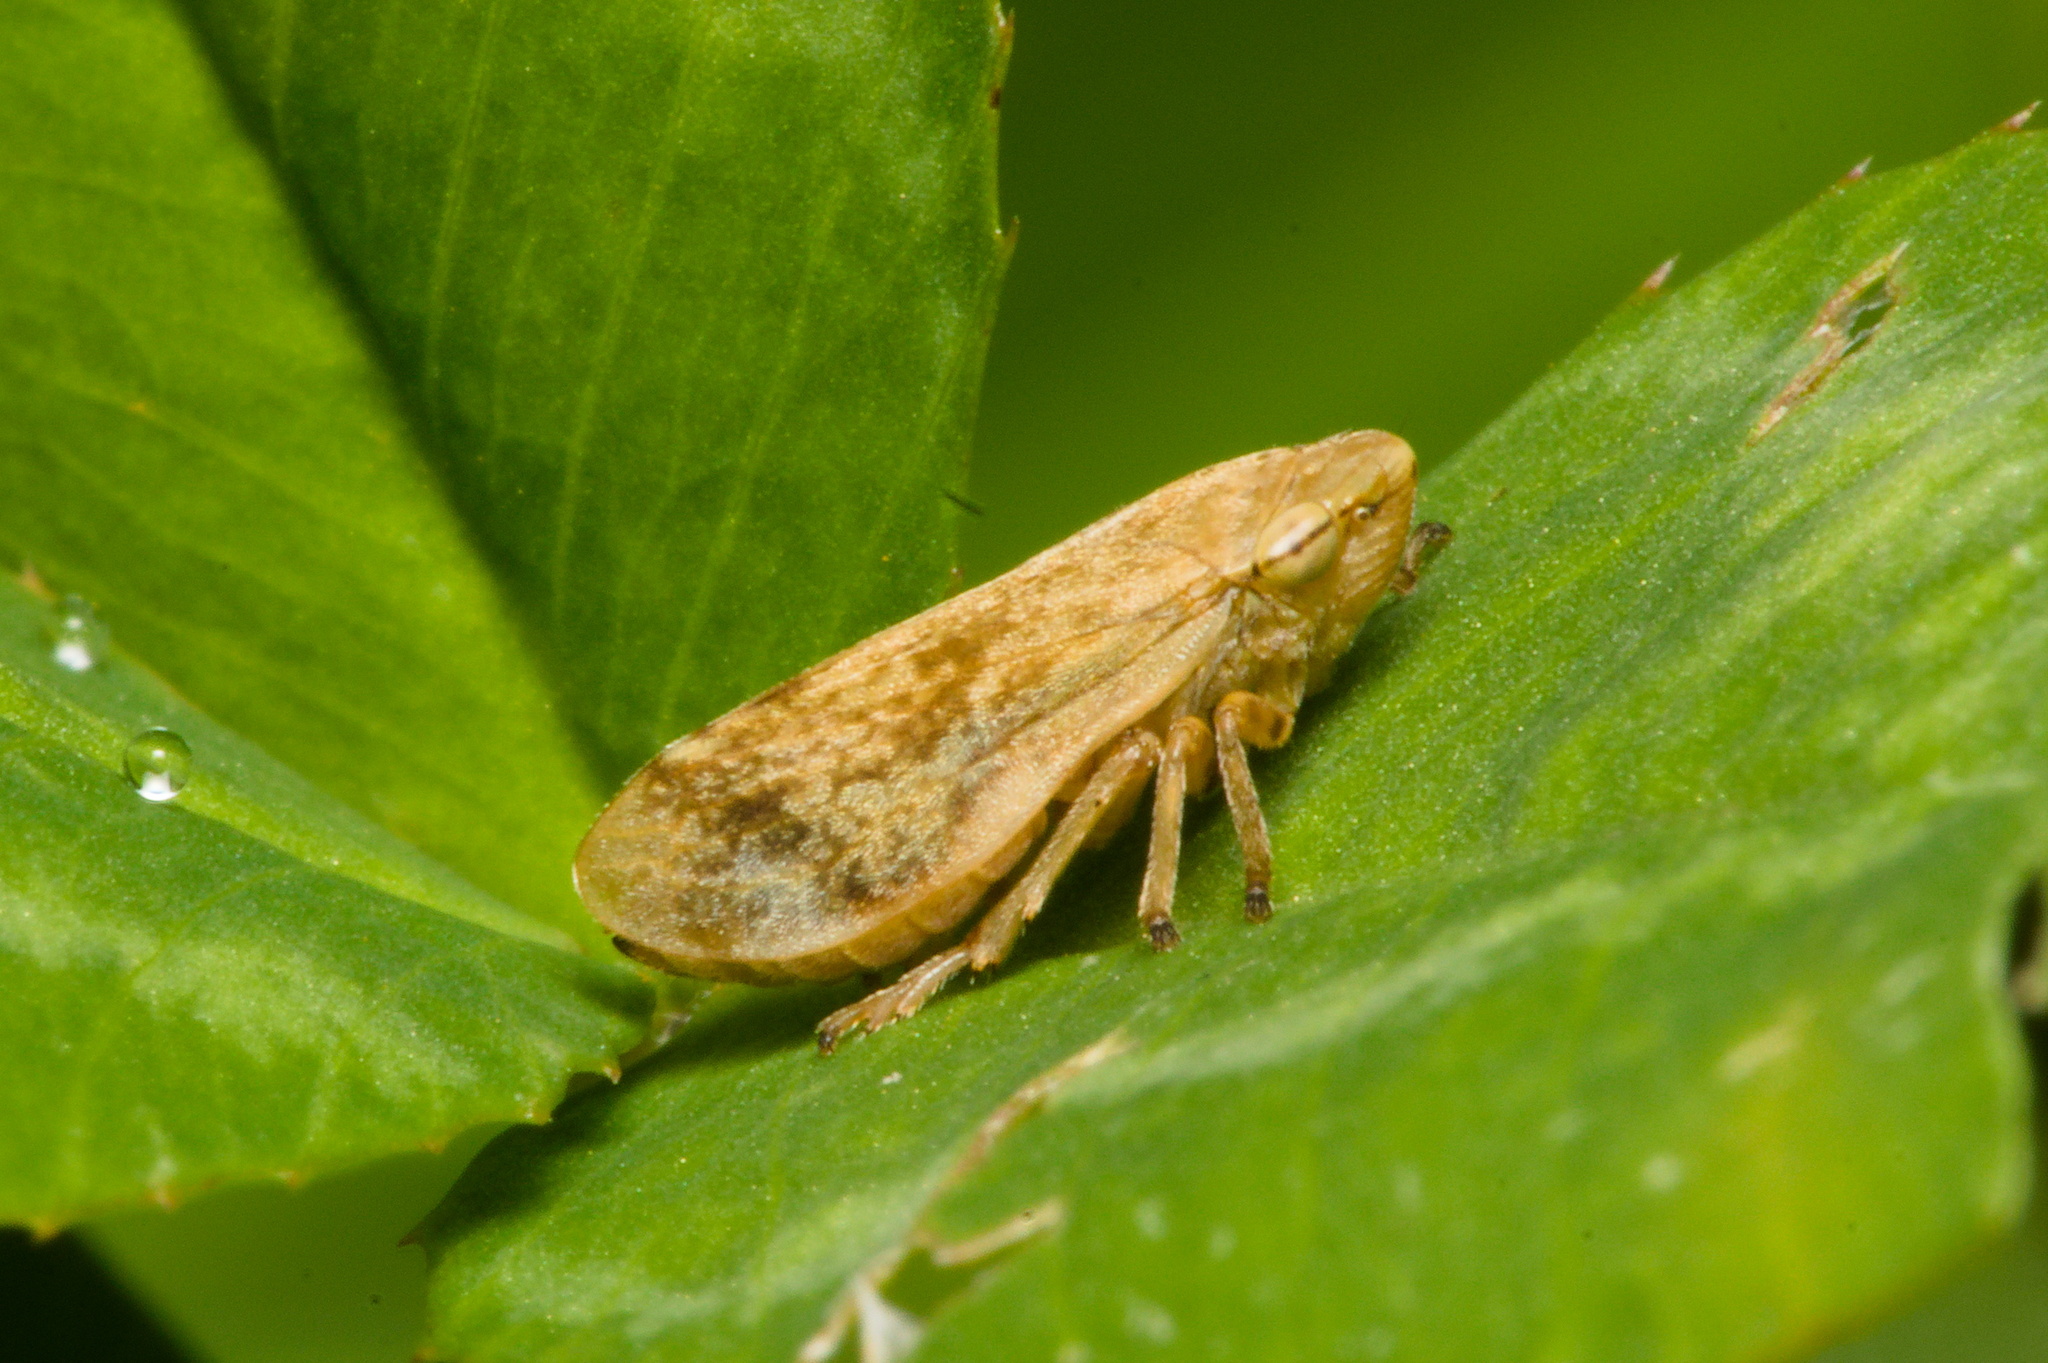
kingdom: Animalia
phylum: Arthropoda
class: Insecta
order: Hemiptera
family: Aphrophoridae
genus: Philaenus
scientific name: Philaenus spumarius
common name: Meadow spittlebug
